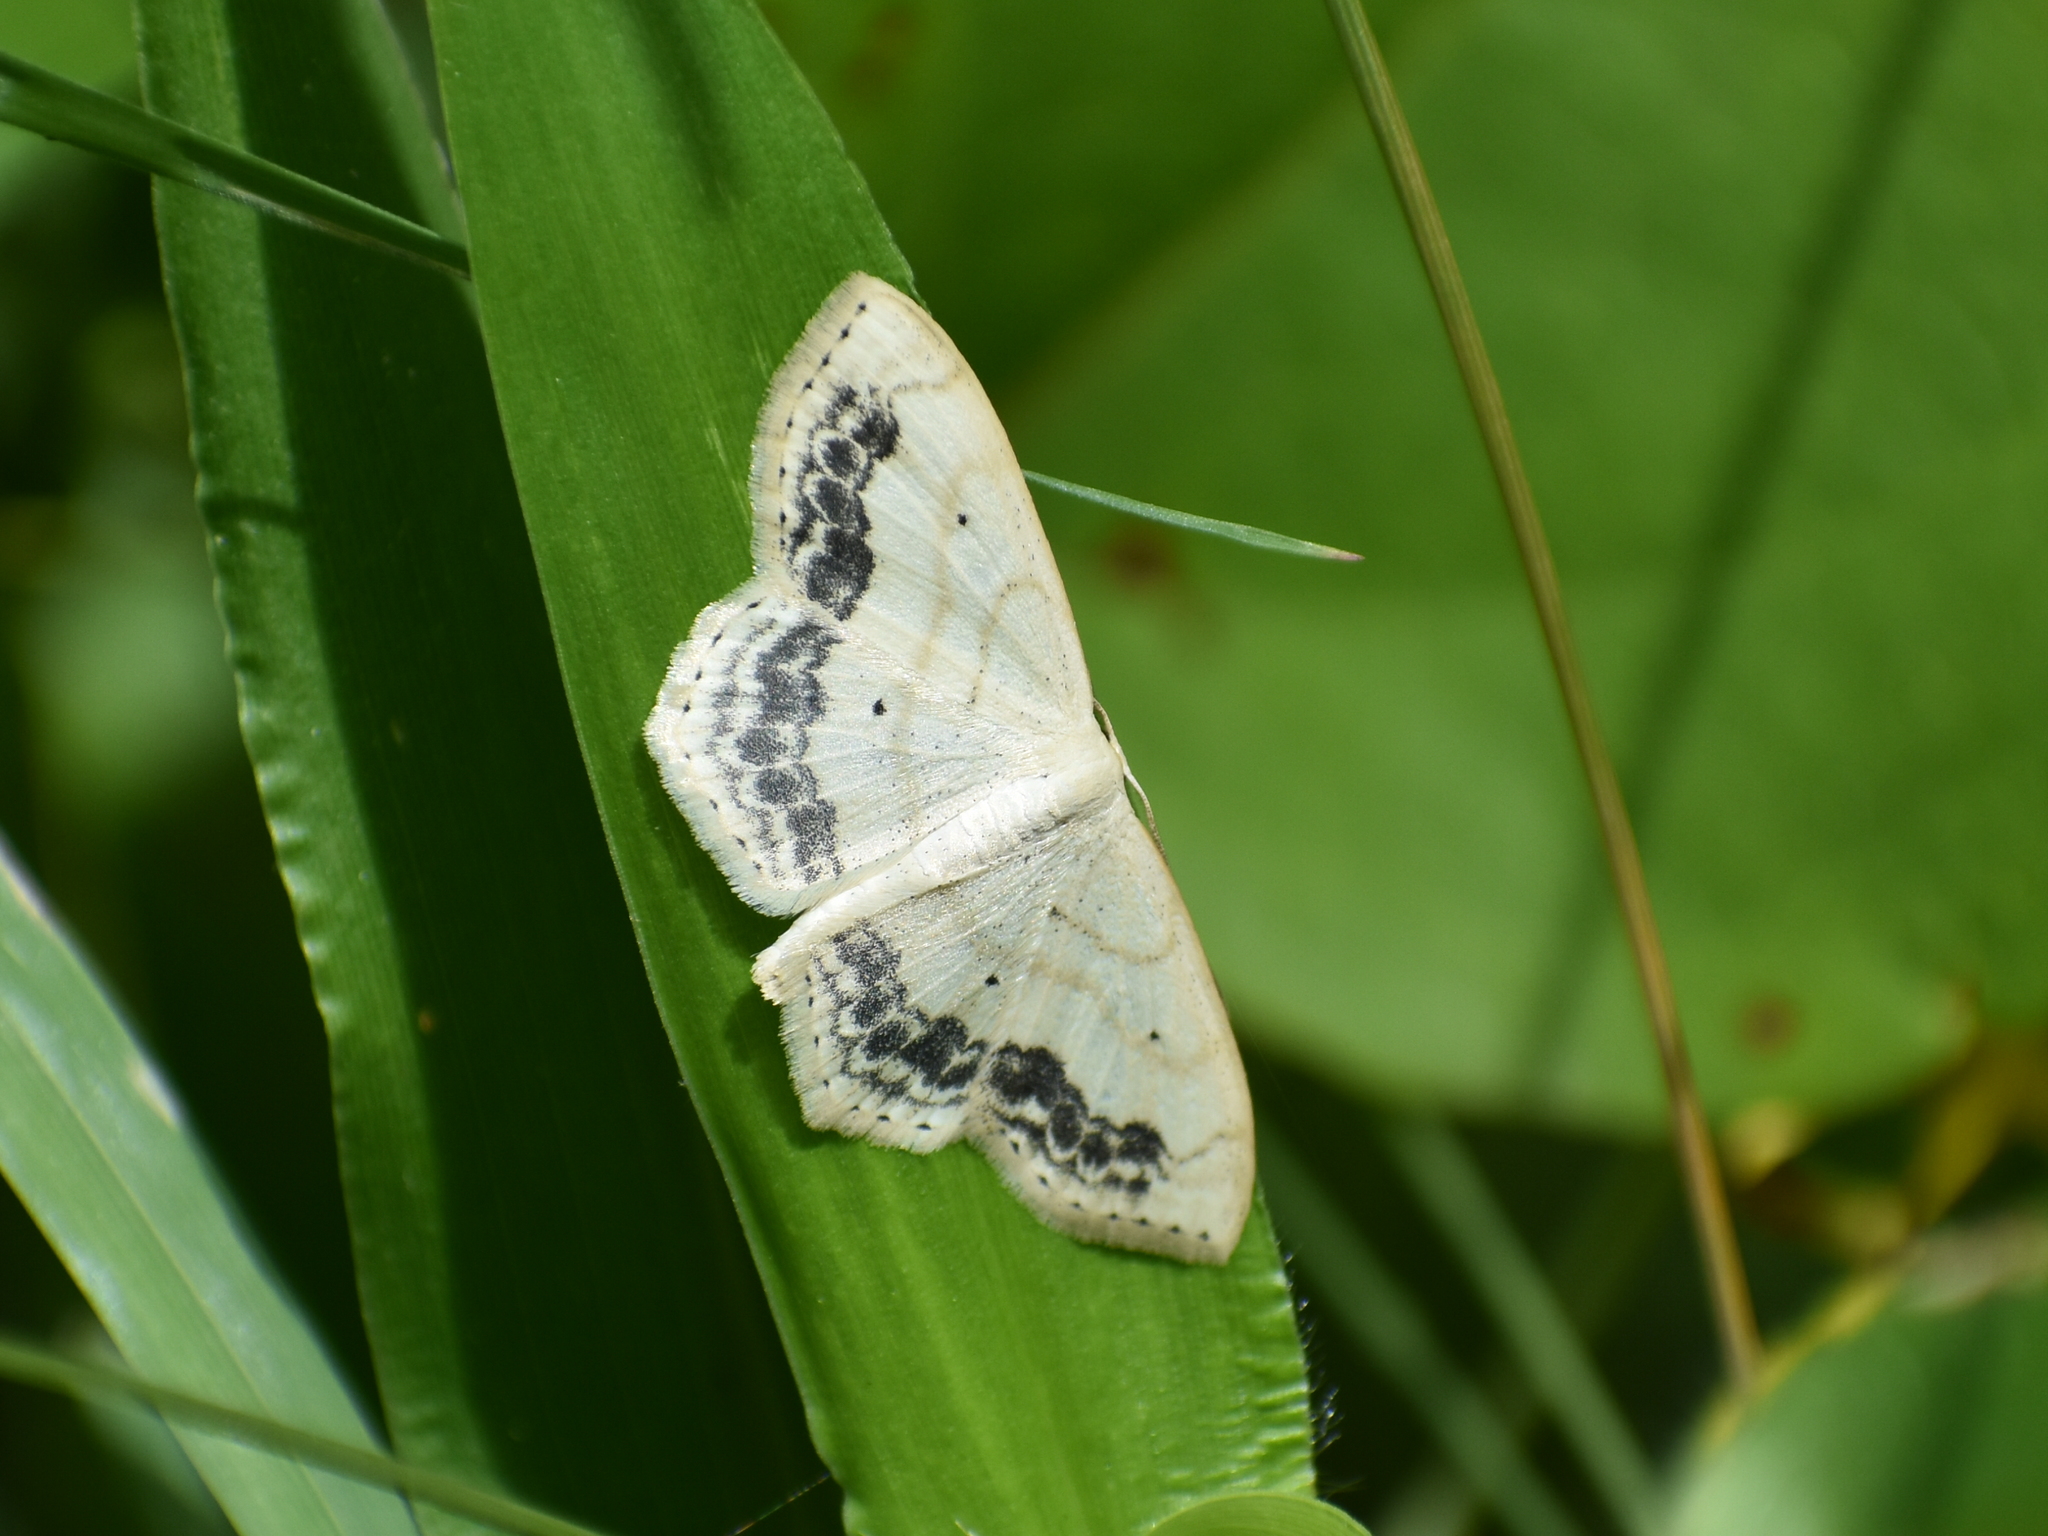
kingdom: Animalia
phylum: Arthropoda
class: Insecta
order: Lepidoptera
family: Geometridae
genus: Scopula
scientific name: Scopula limboundata
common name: Large lace border
